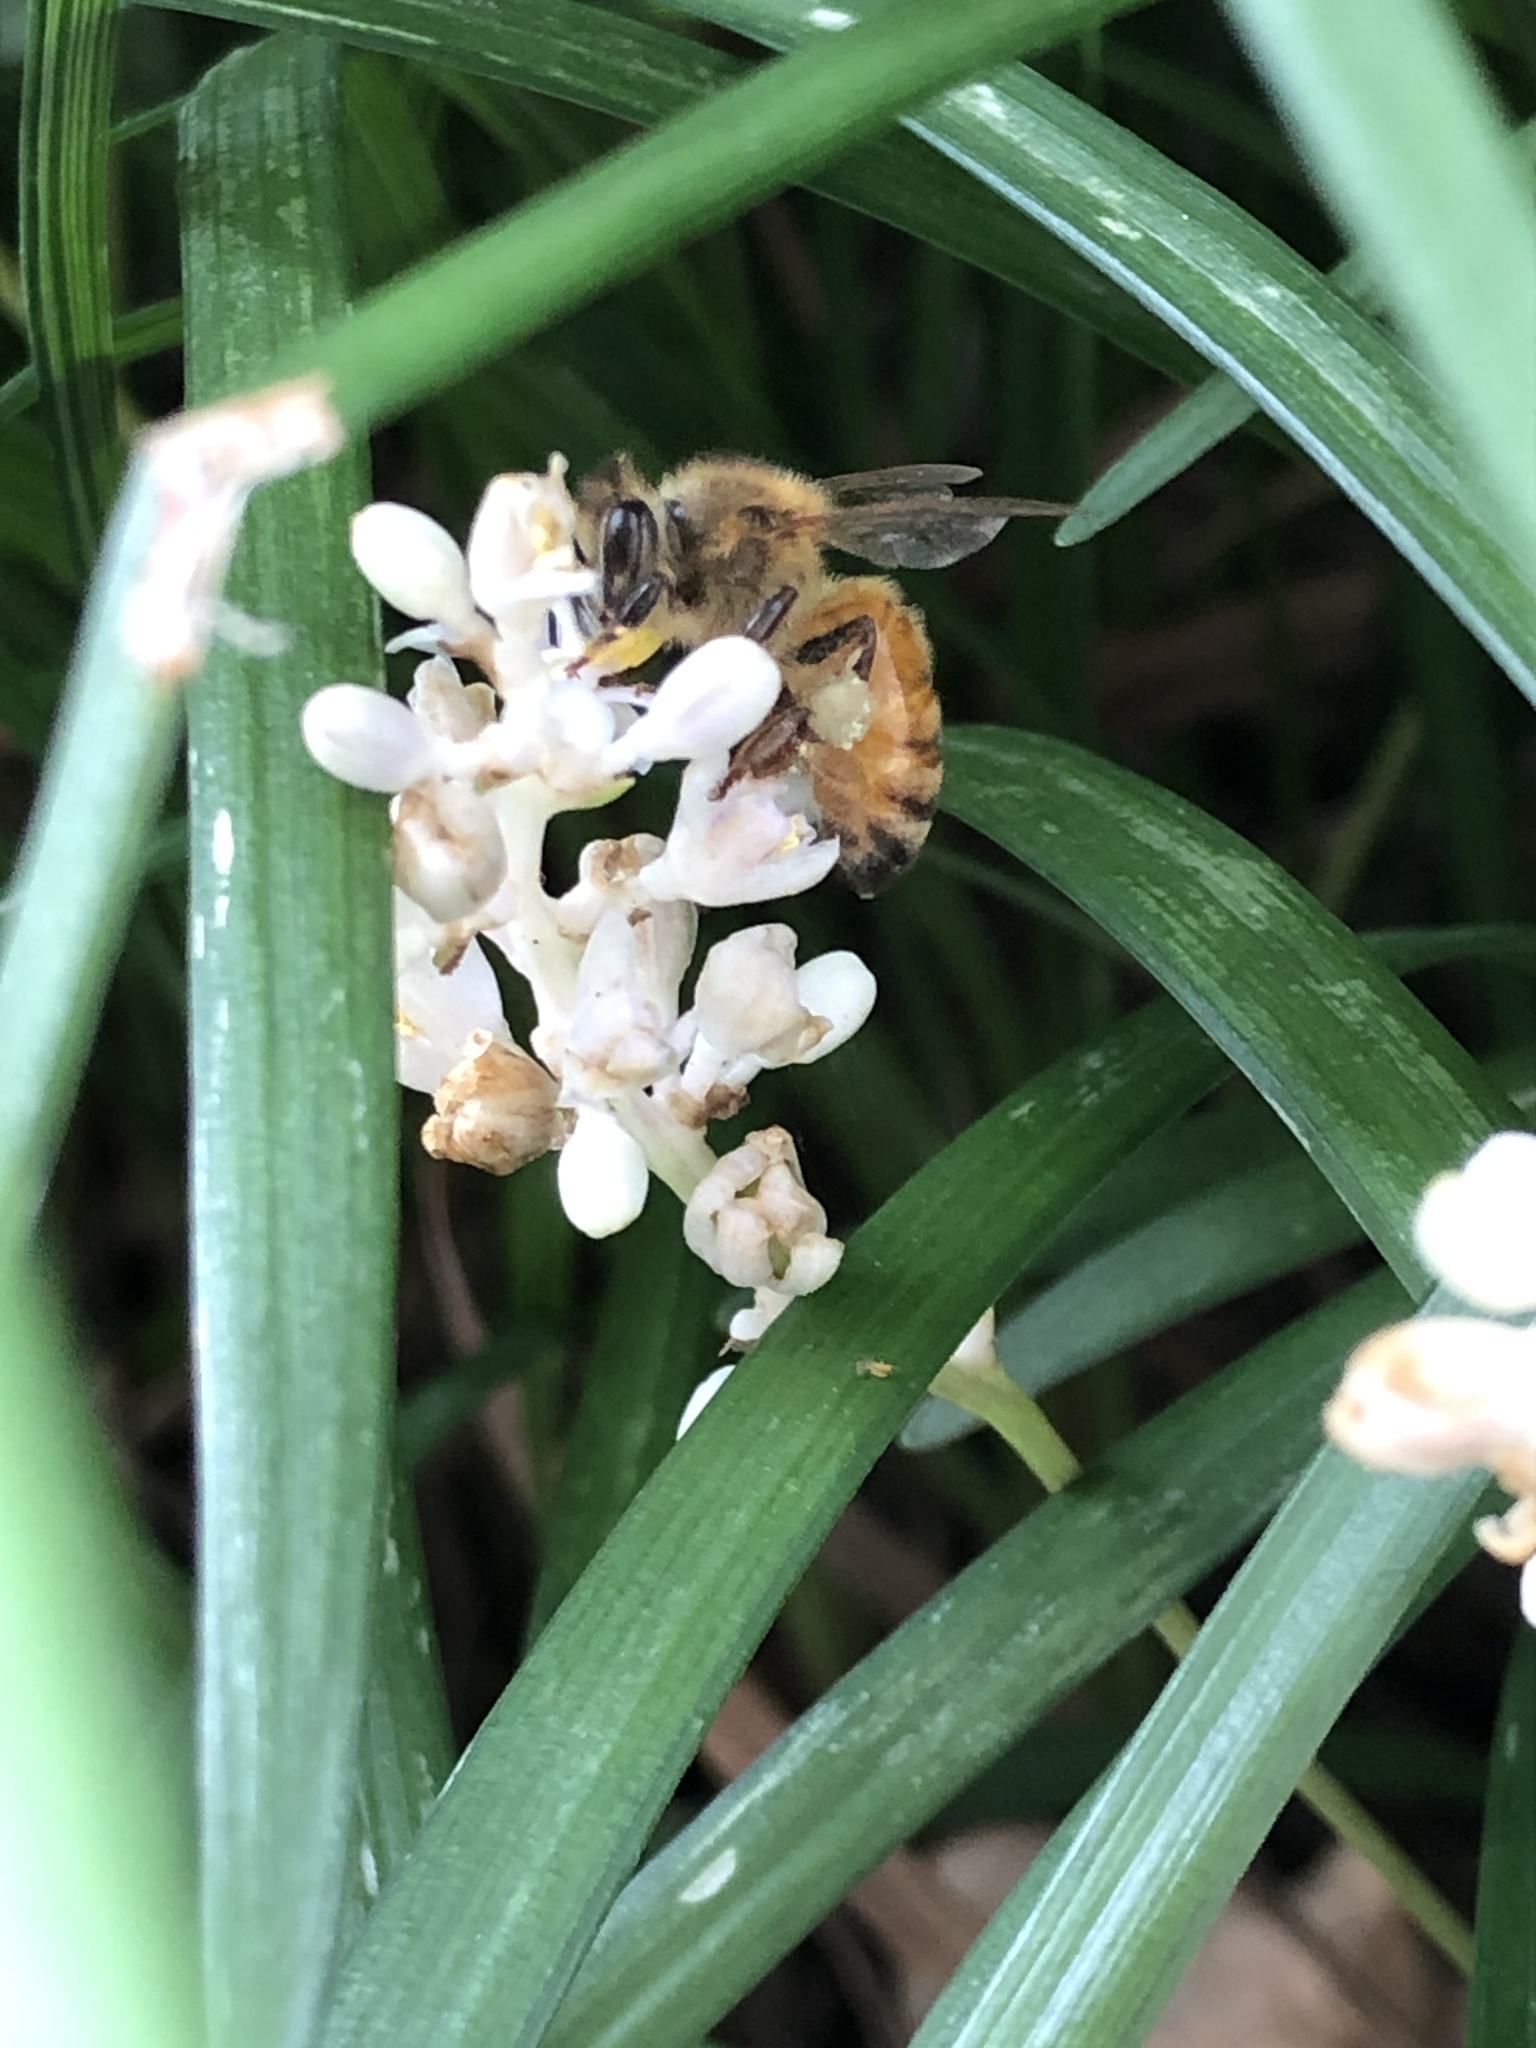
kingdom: Animalia
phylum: Arthropoda
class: Insecta
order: Hymenoptera
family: Apidae
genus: Apis
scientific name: Apis mellifera
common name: Honey bee
